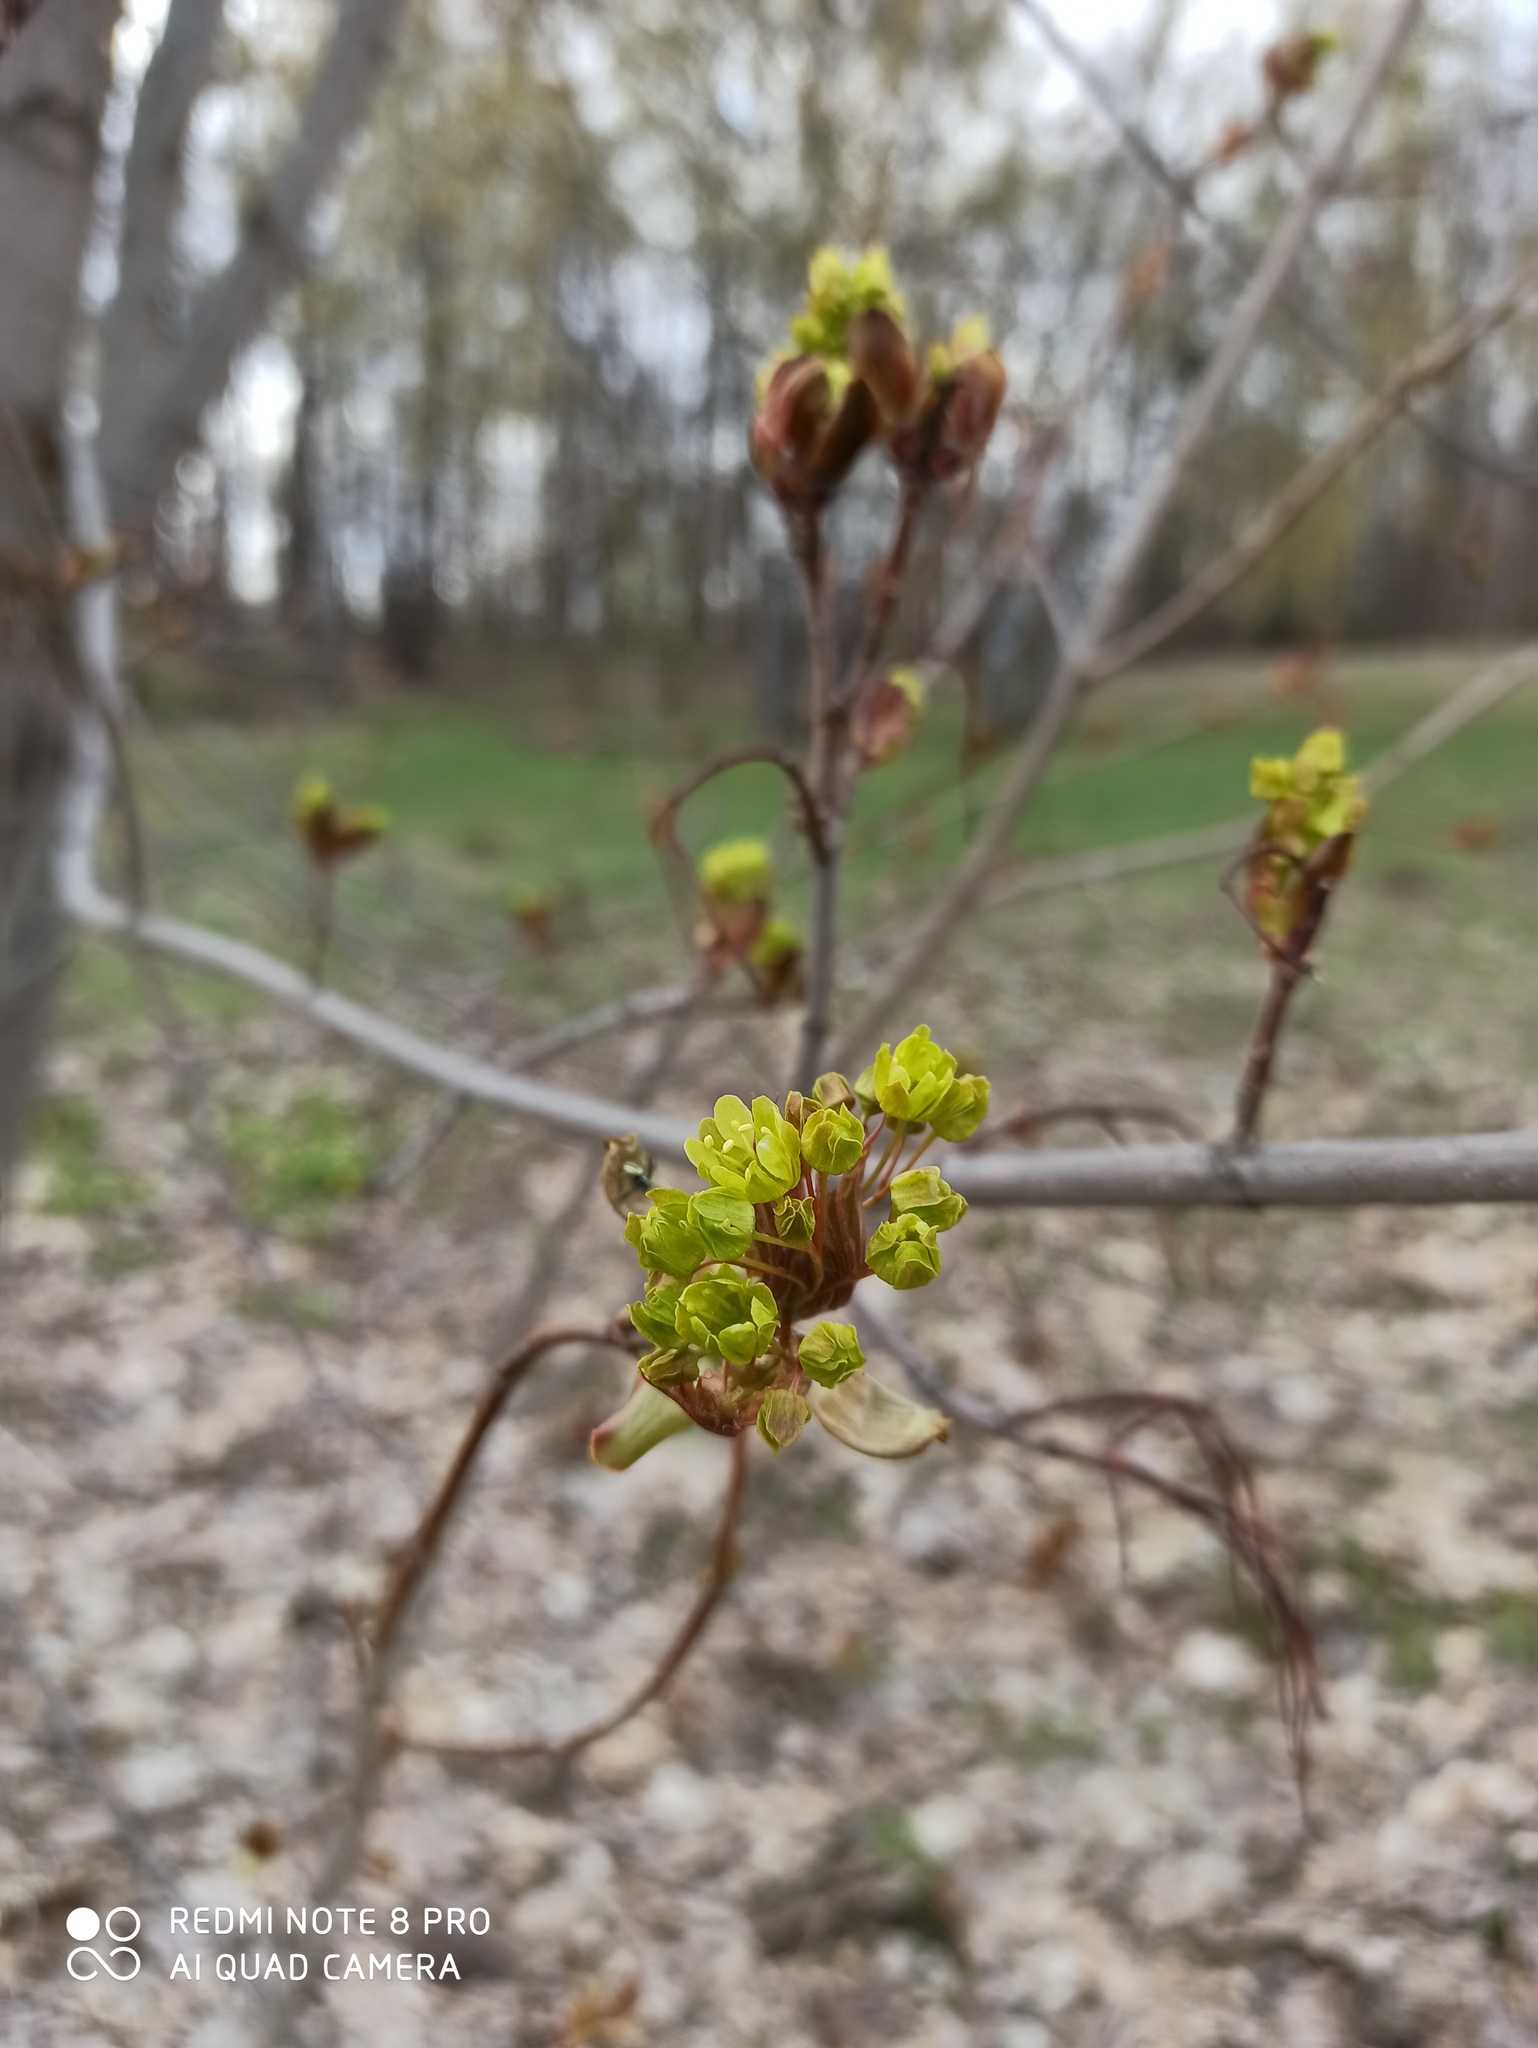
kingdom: Plantae
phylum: Tracheophyta
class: Magnoliopsida
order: Sapindales
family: Sapindaceae
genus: Acer
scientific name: Acer platanoides
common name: Norway maple
